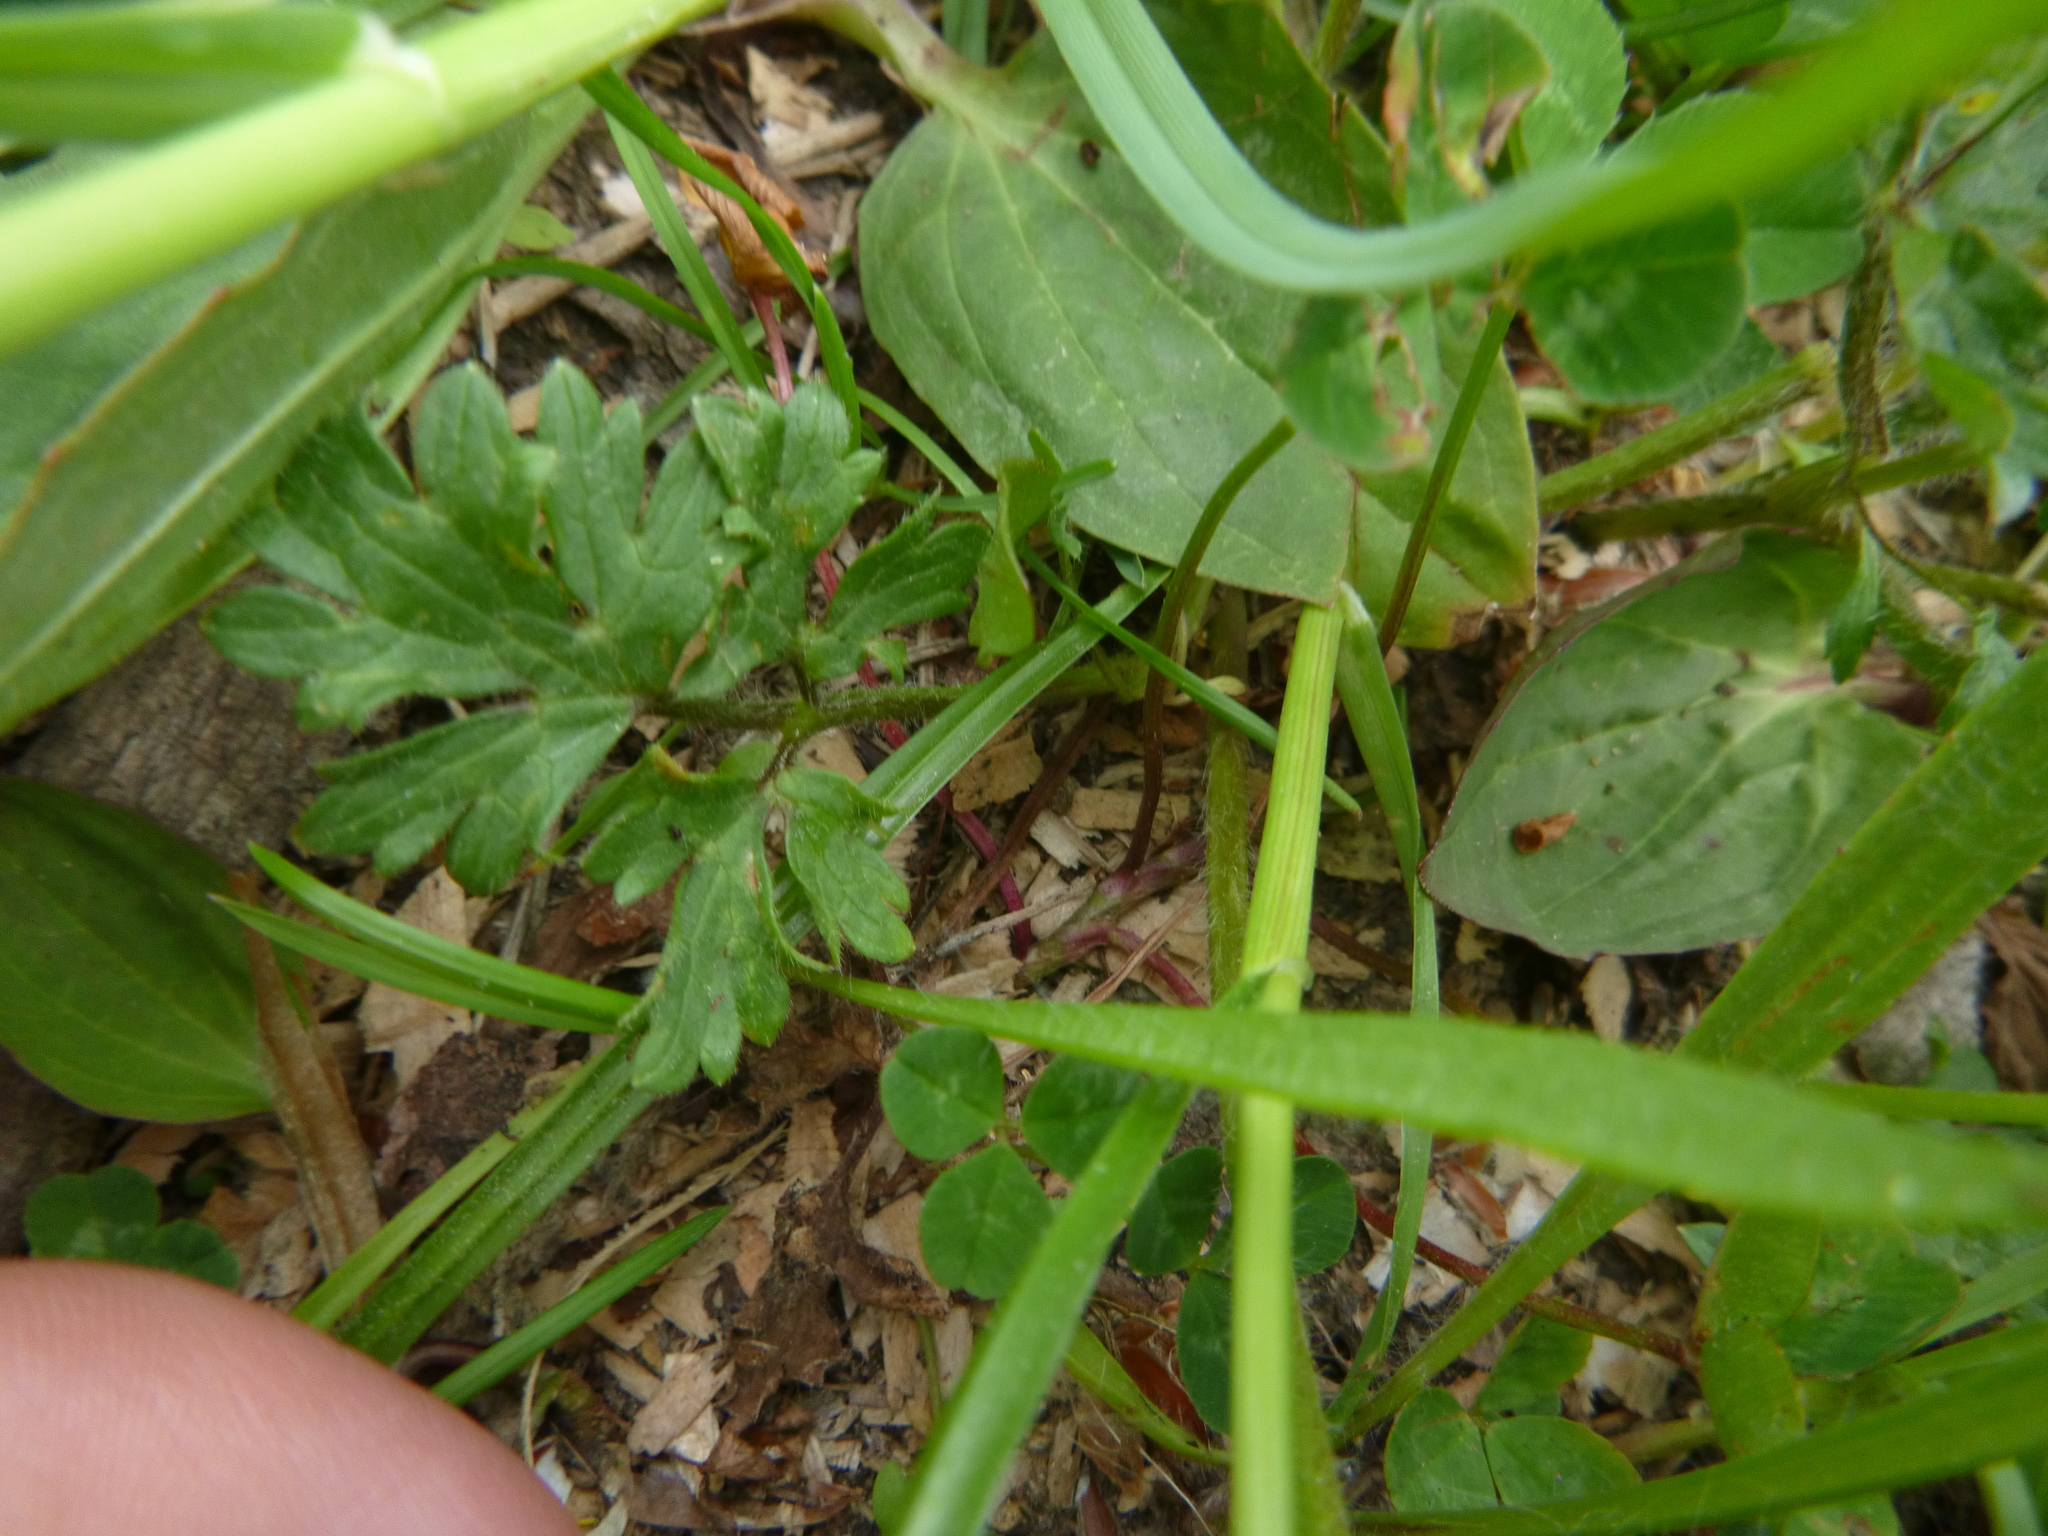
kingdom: Plantae
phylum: Tracheophyta
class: Magnoliopsida
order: Ranunculales
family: Ranunculaceae
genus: Ranunculus
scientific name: Ranunculus bulbosus
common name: Bulbous buttercup
